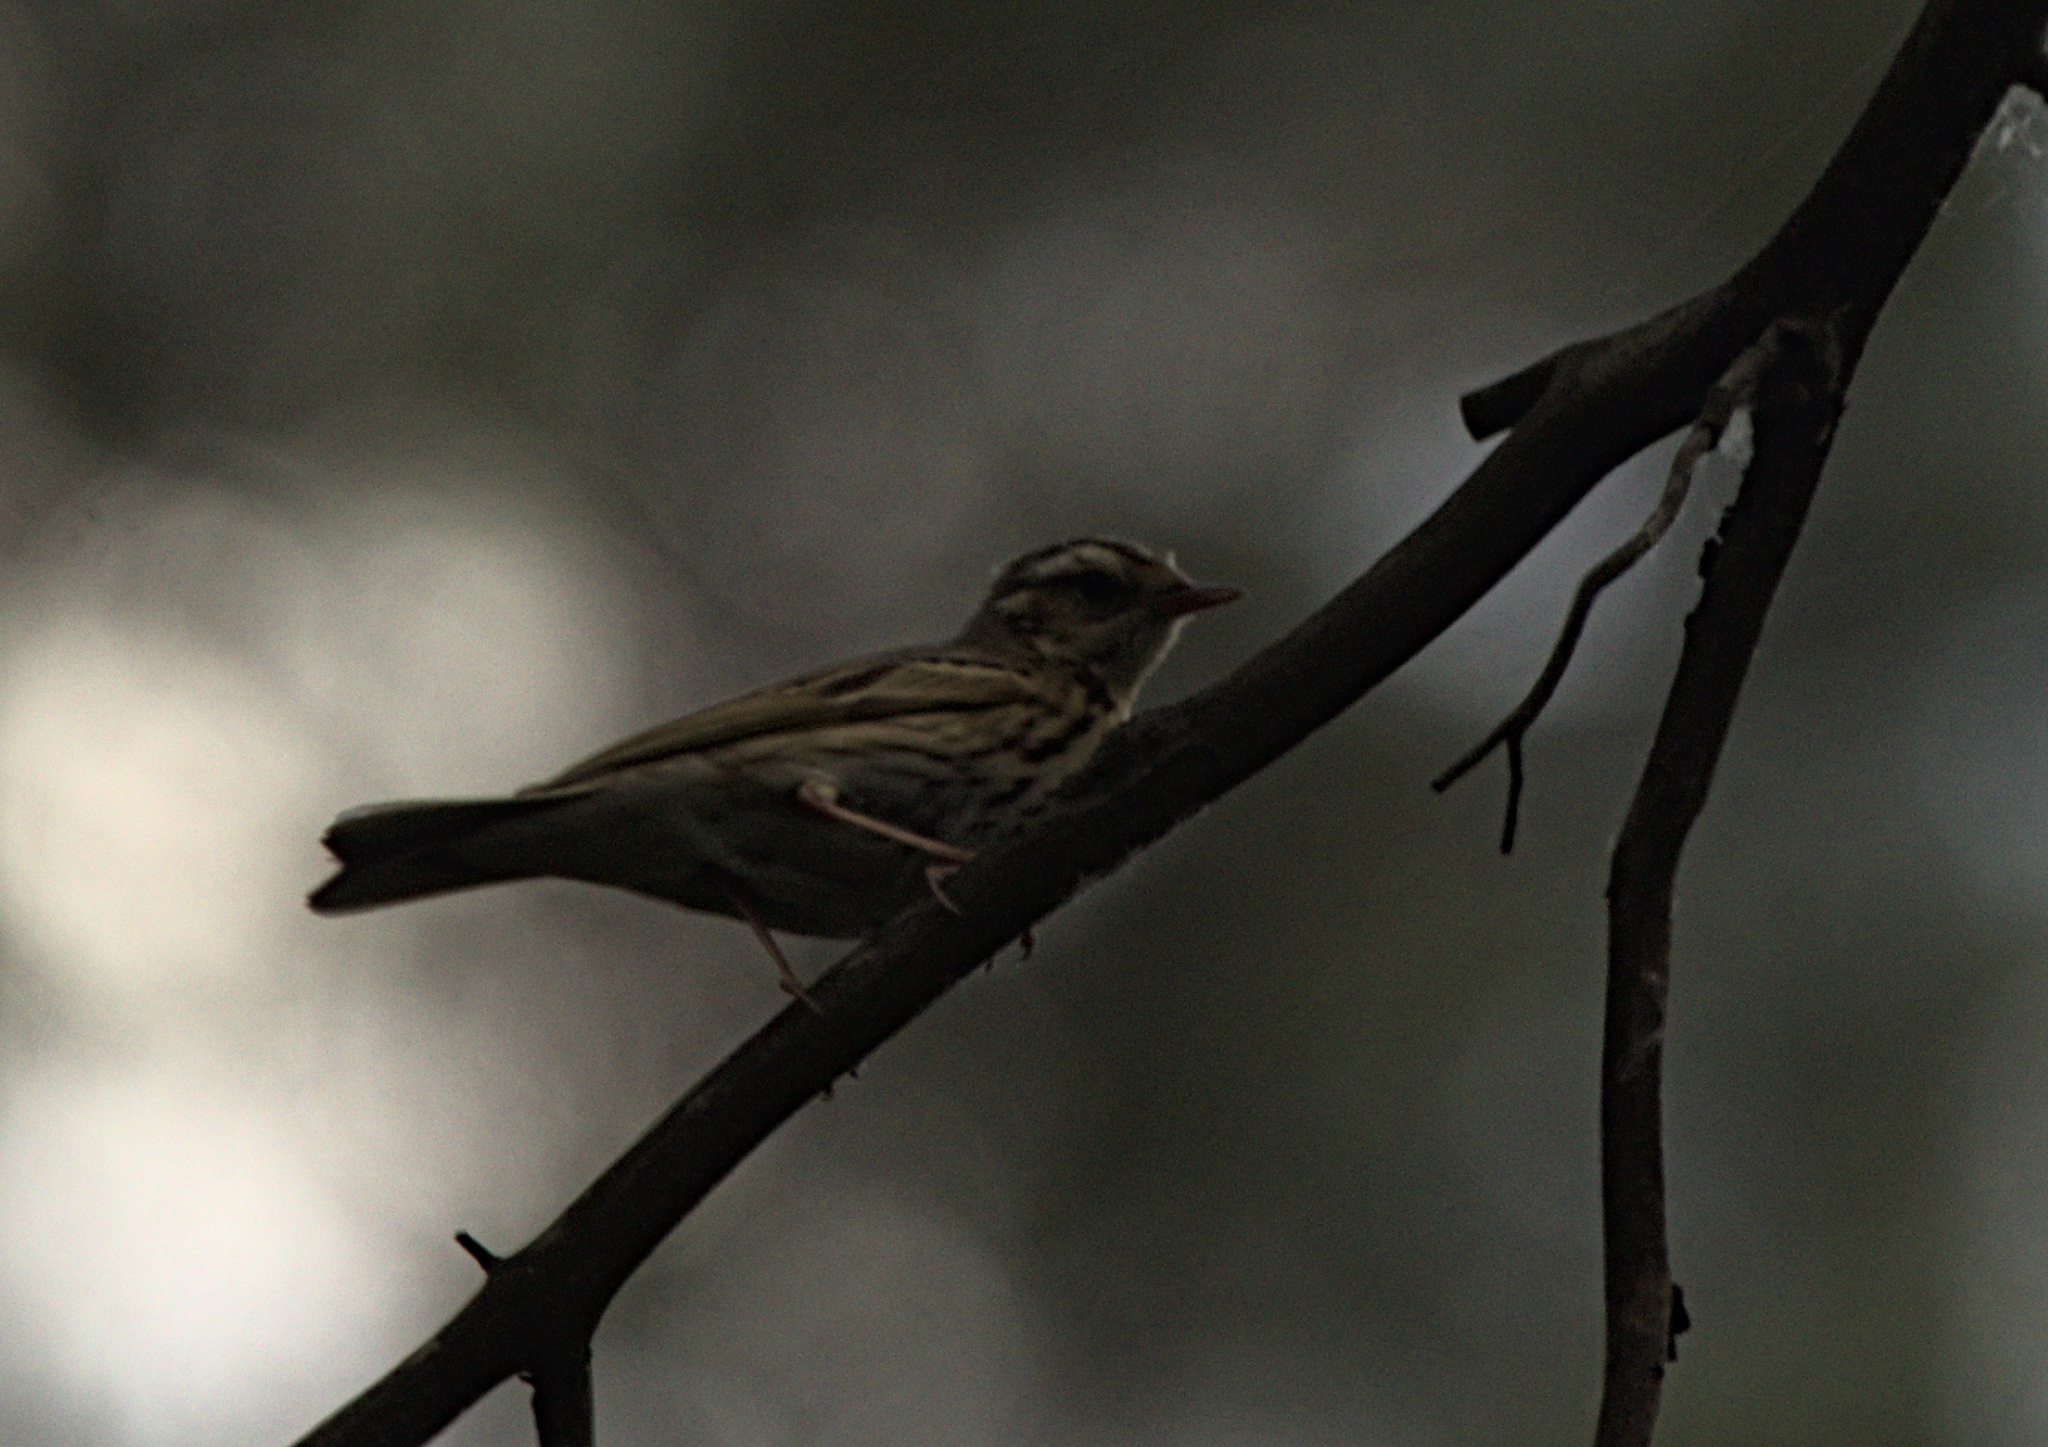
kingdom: Animalia
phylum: Chordata
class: Aves
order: Passeriformes
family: Motacillidae
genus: Anthus
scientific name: Anthus hodgsoni
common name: Olive-backed pipit
